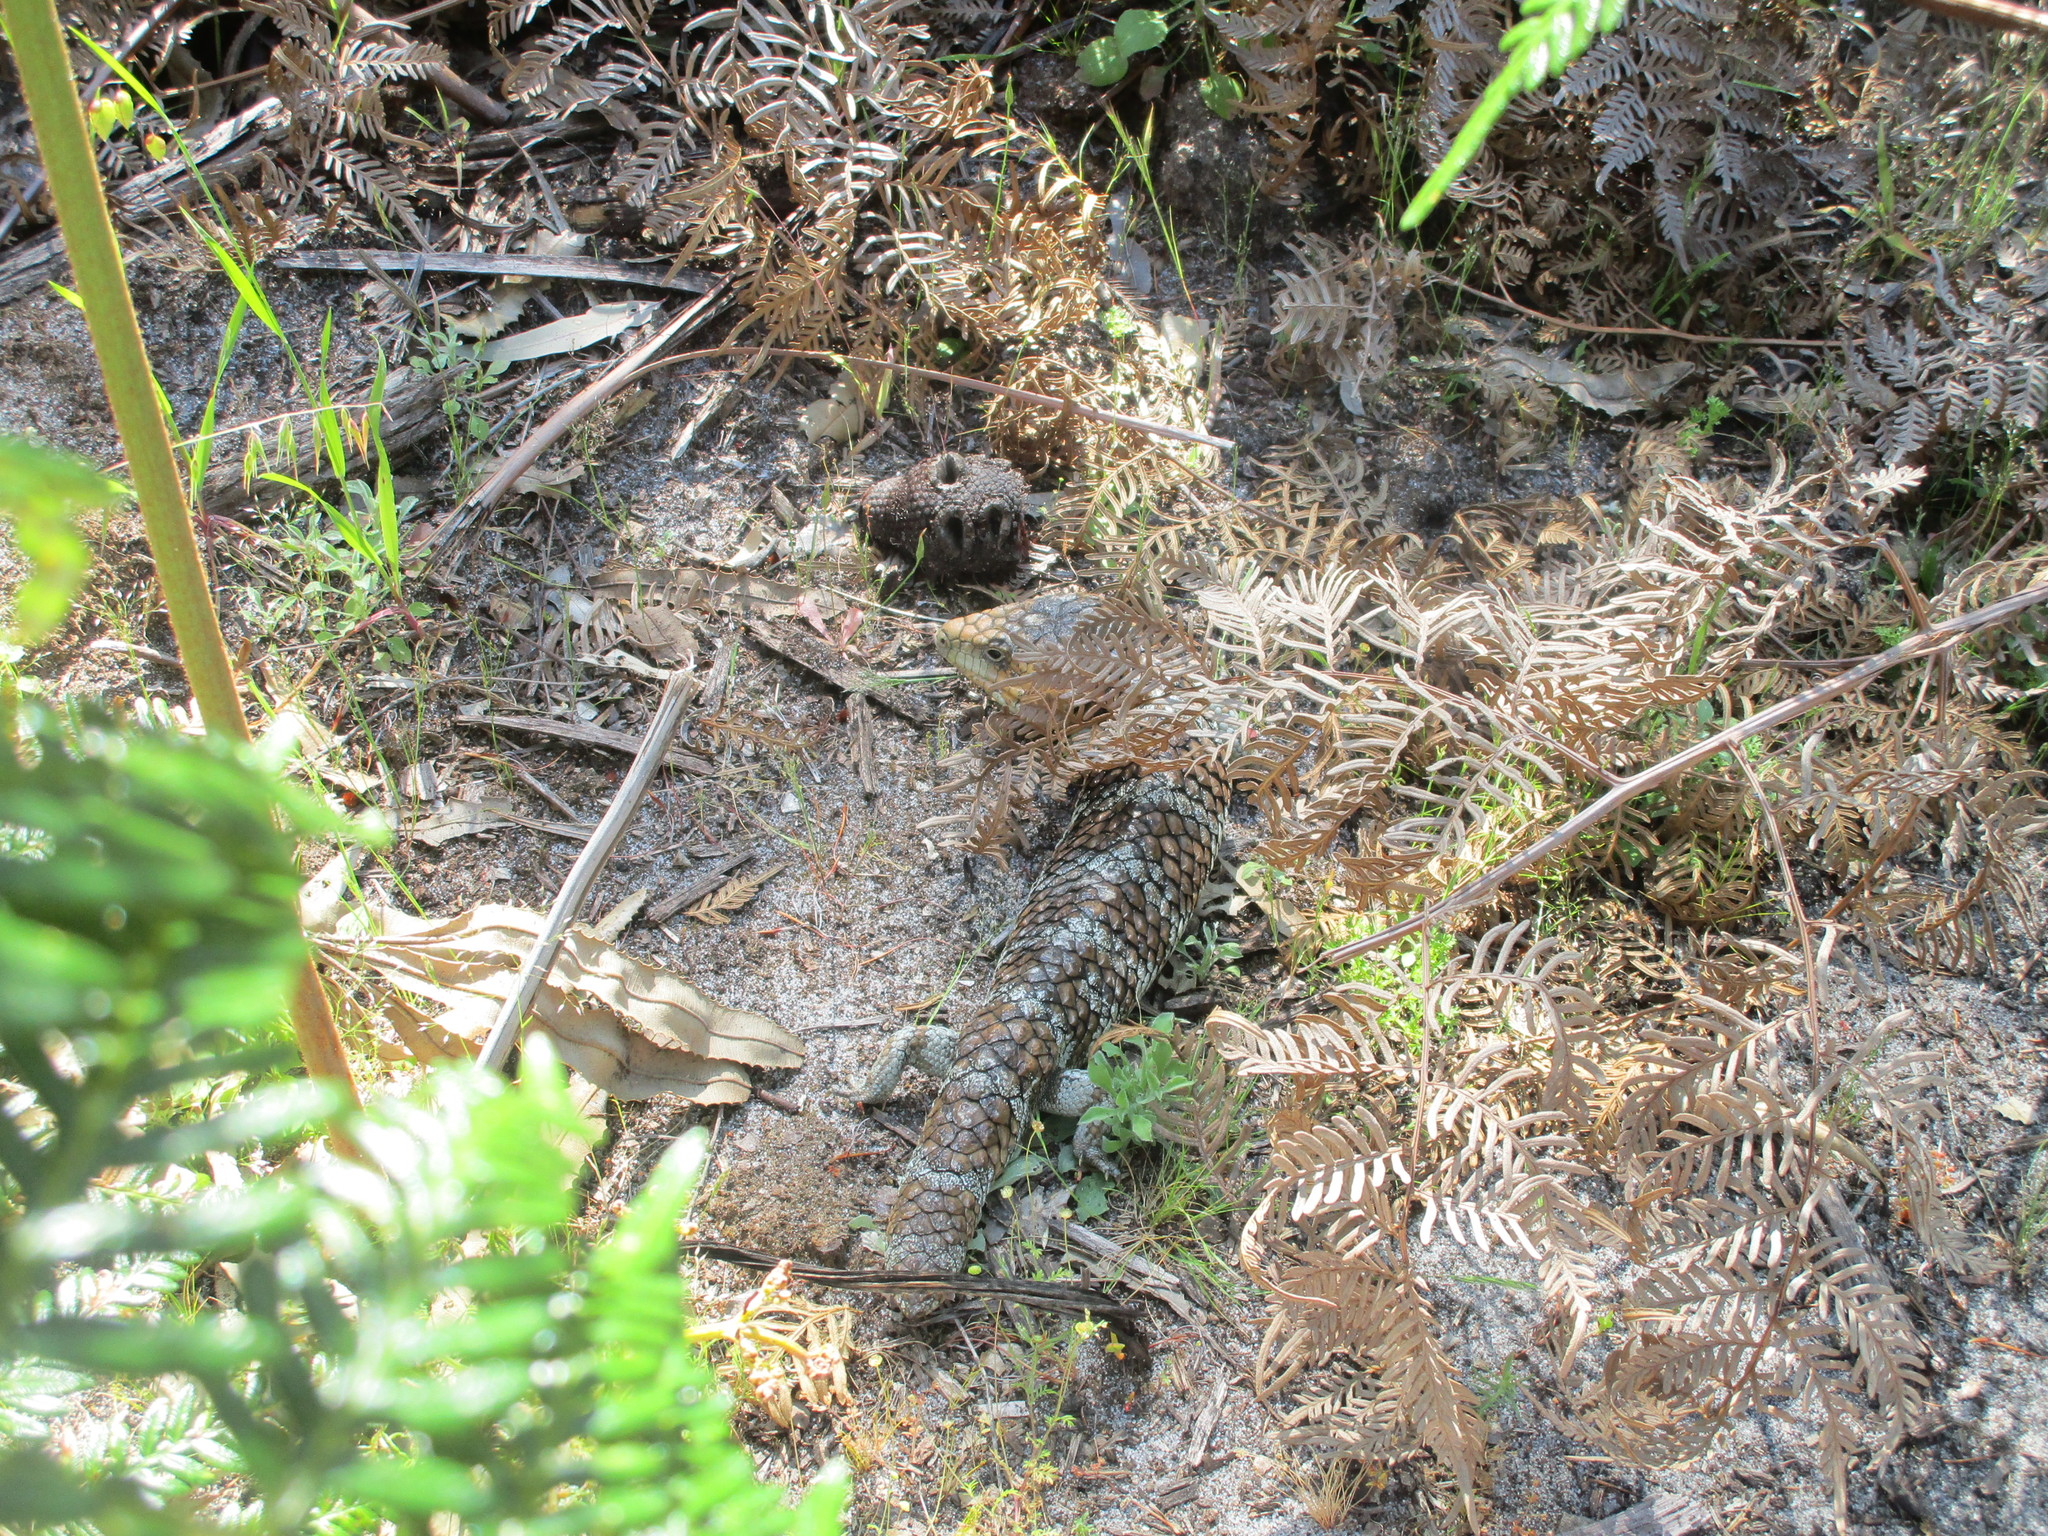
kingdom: Animalia
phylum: Chordata
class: Squamata
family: Scincidae
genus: Tiliqua
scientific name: Tiliqua rugosa
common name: Pinecone lizard
